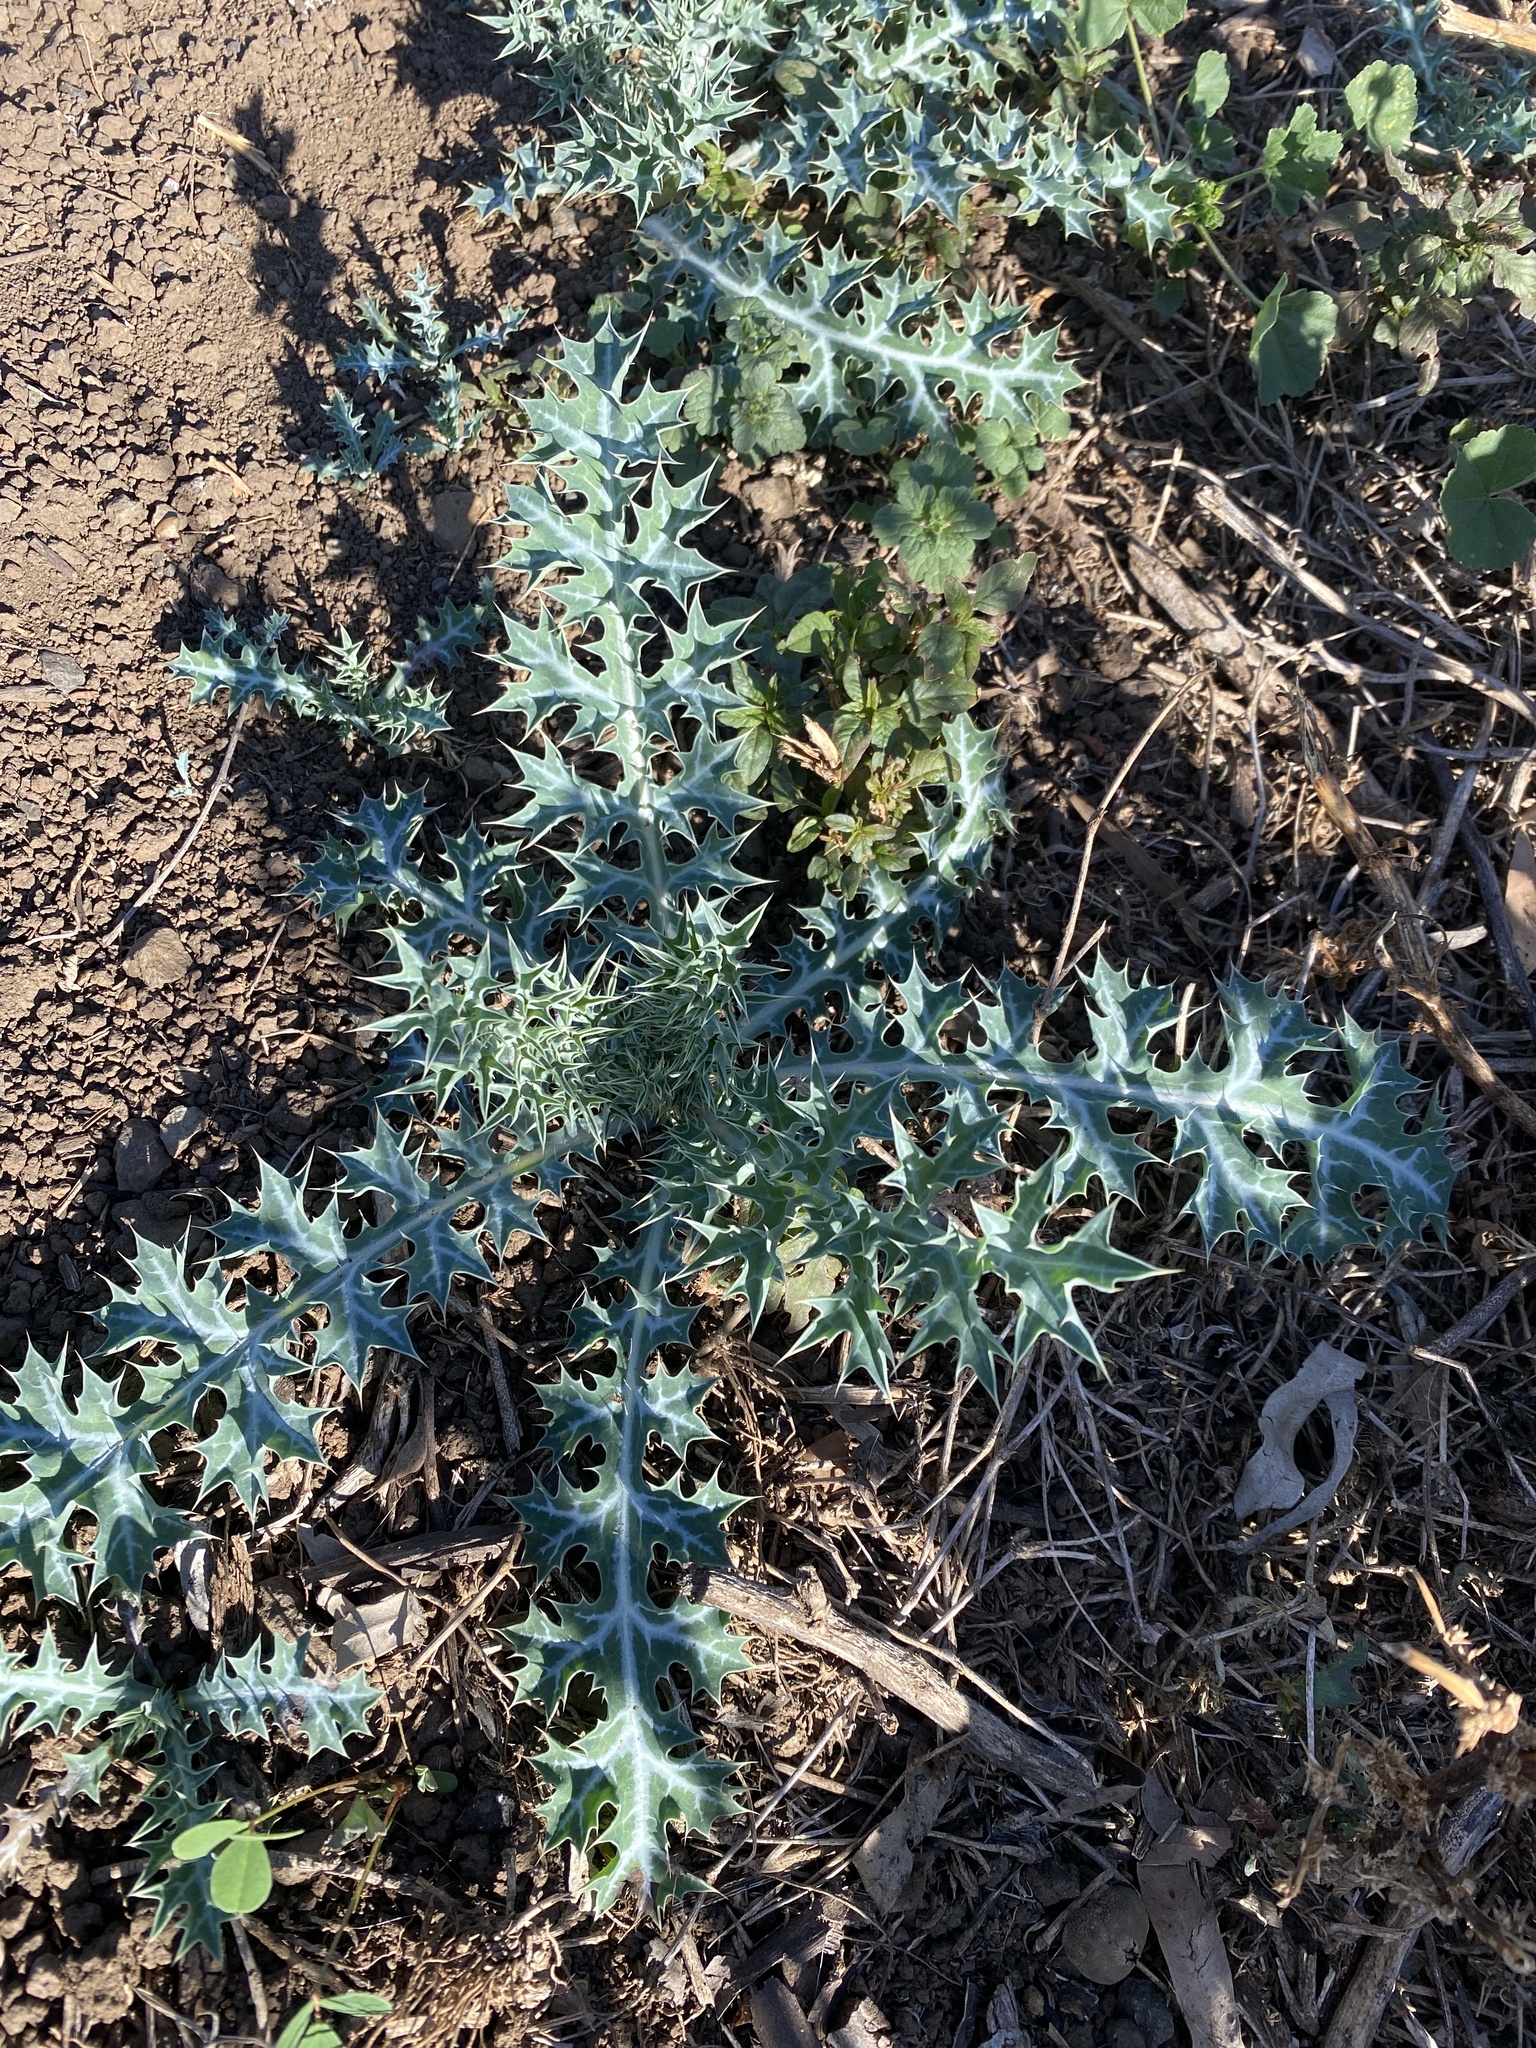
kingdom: Plantae
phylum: Tracheophyta
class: Magnoliopsida
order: Ranunculales
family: Papaveraceae
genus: Argemone
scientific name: Argemone ochroleuca
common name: White-flower mexican-poppy
